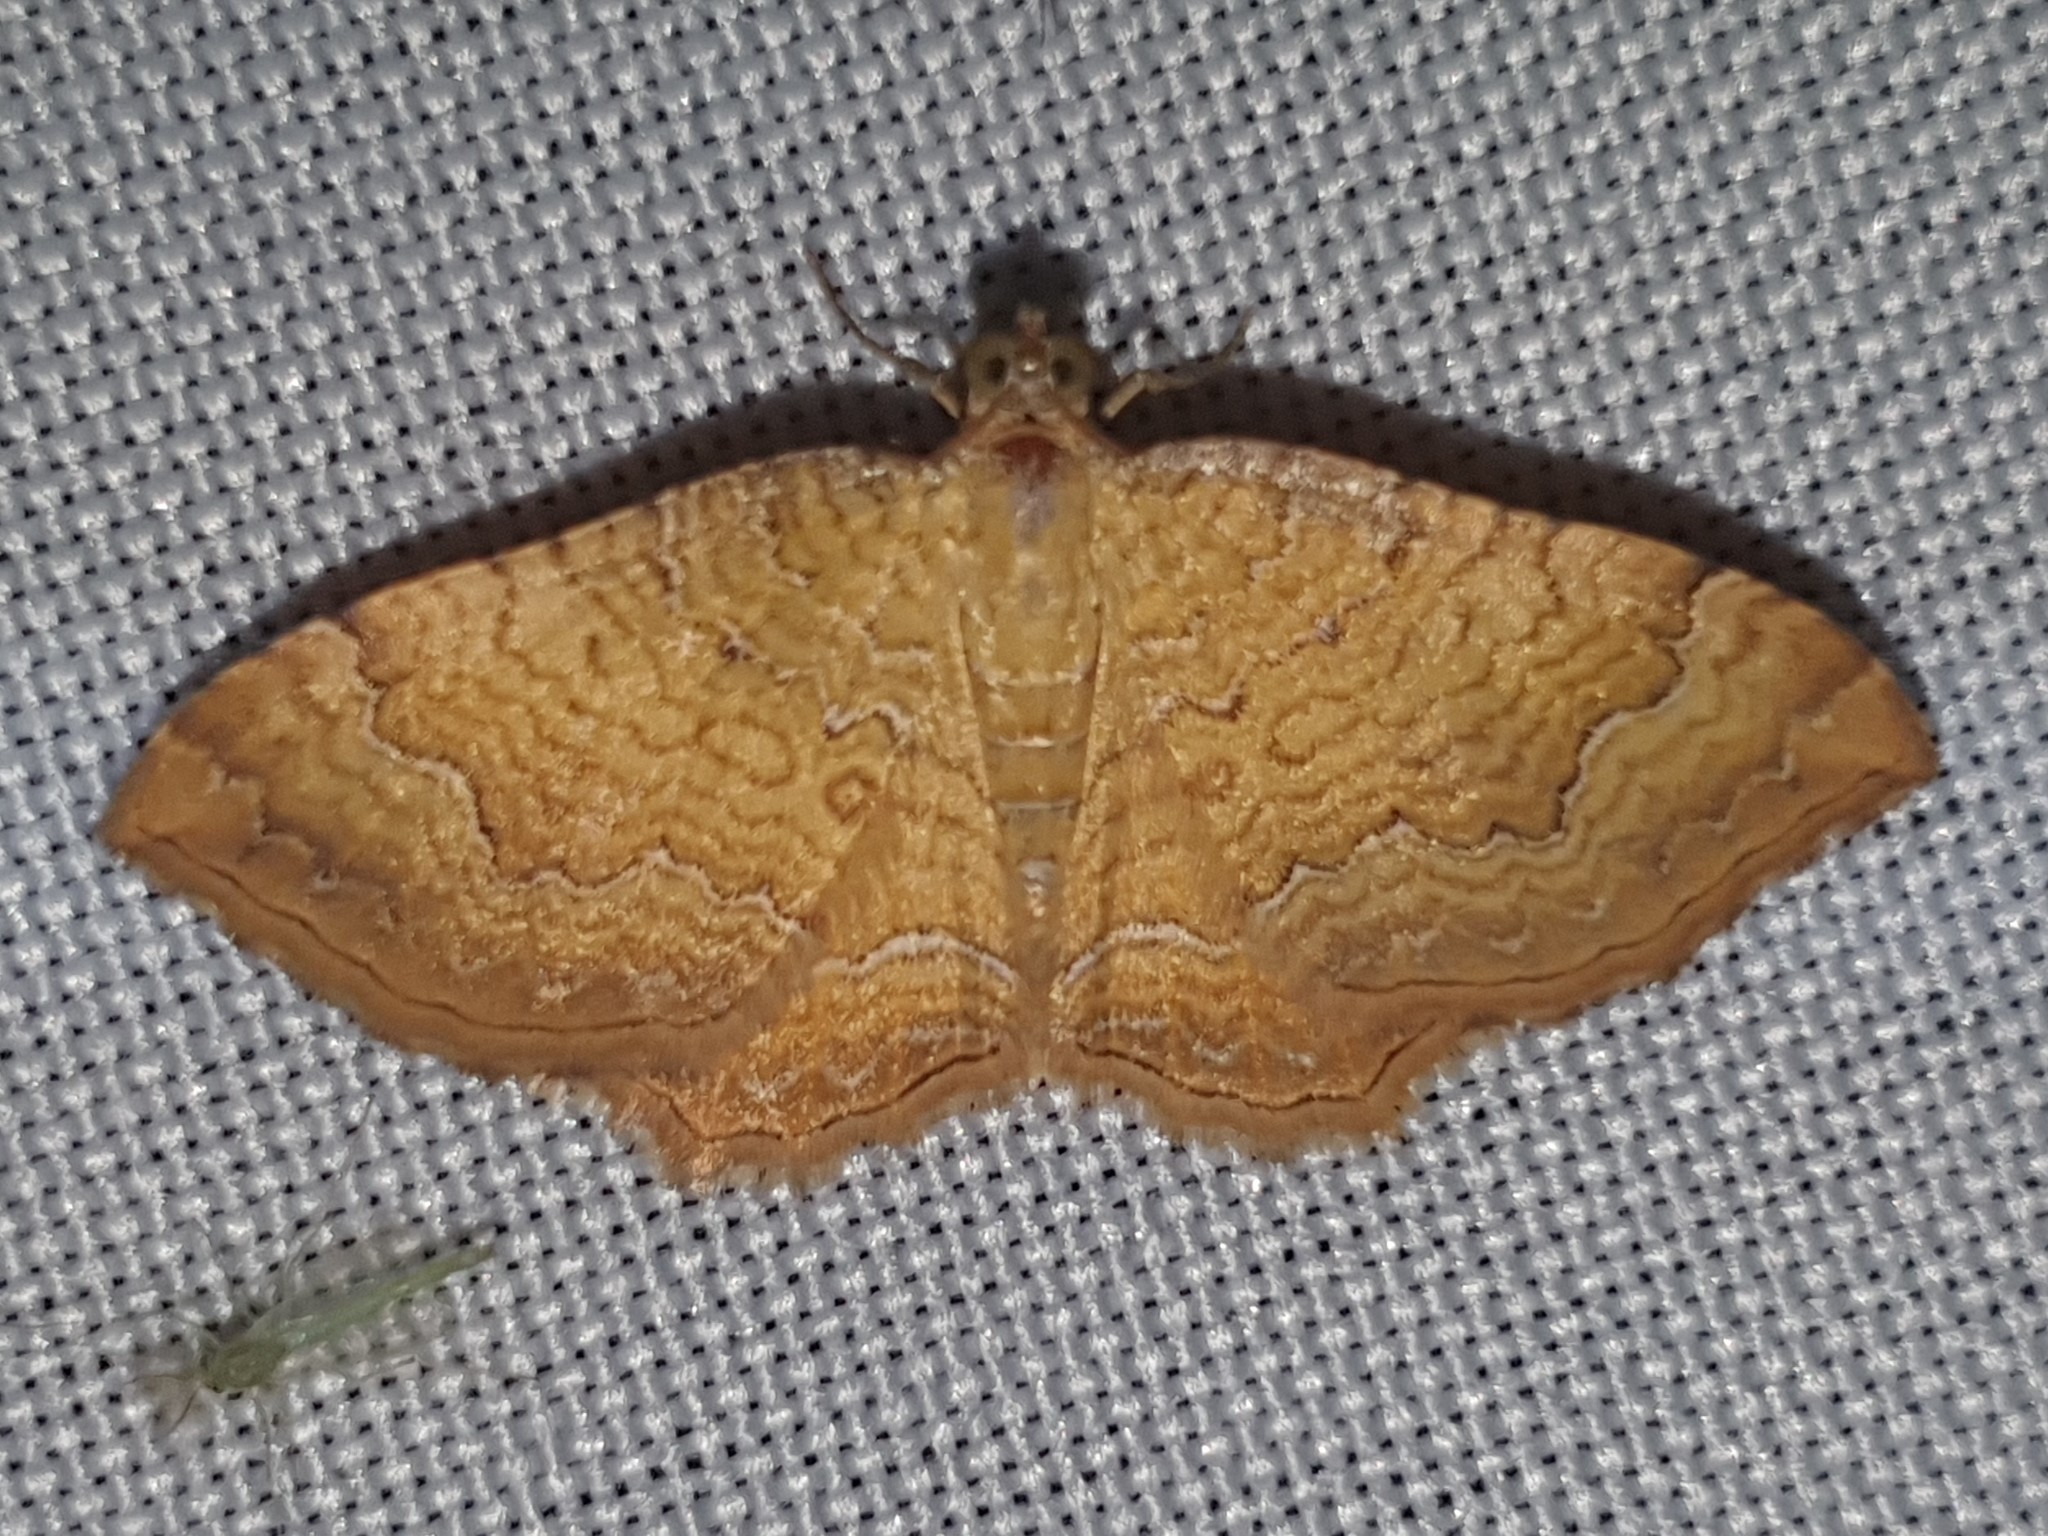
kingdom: Animalia
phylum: Arthropoda
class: Insecta
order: Lepidoptera
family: Geometridae
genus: Camptogramma
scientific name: Camptogramma bilineata
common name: Yellow shell
